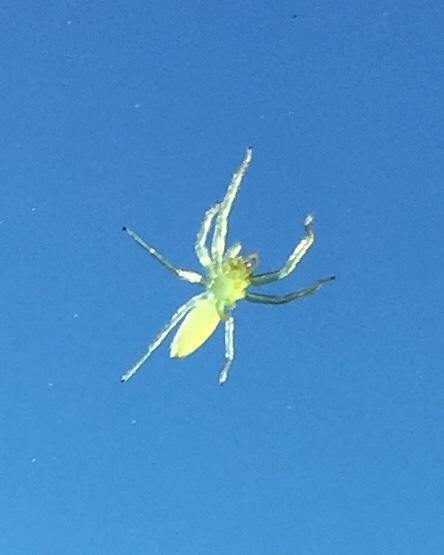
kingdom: Animalia
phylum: Arthropoda
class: Arachnida
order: Araneae
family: Salticidae
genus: Lyssomanes
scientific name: Lyssomanes viridis
